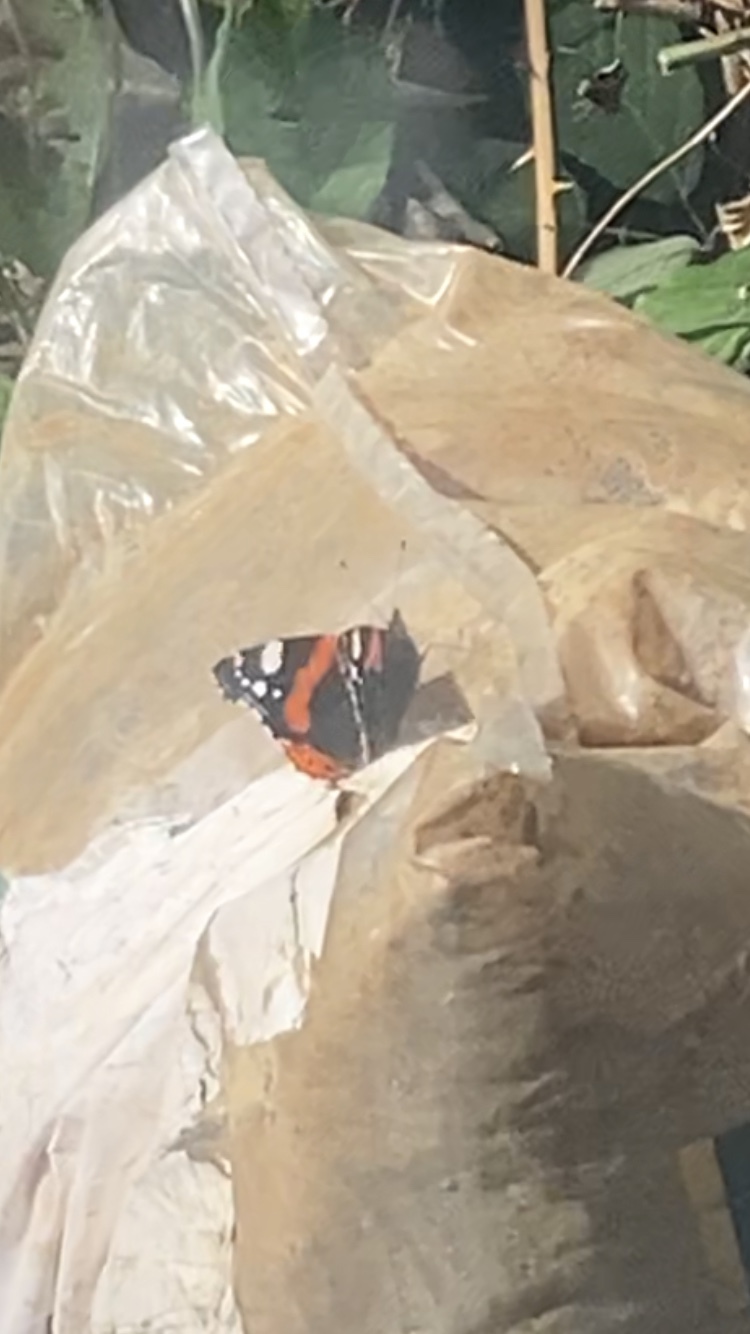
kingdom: Animalia
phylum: Arthropoda
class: Insecta
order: Lepidoptera
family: Nymphalidae
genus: Vanessa
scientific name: Vanessa atalanta
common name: Red admiral
